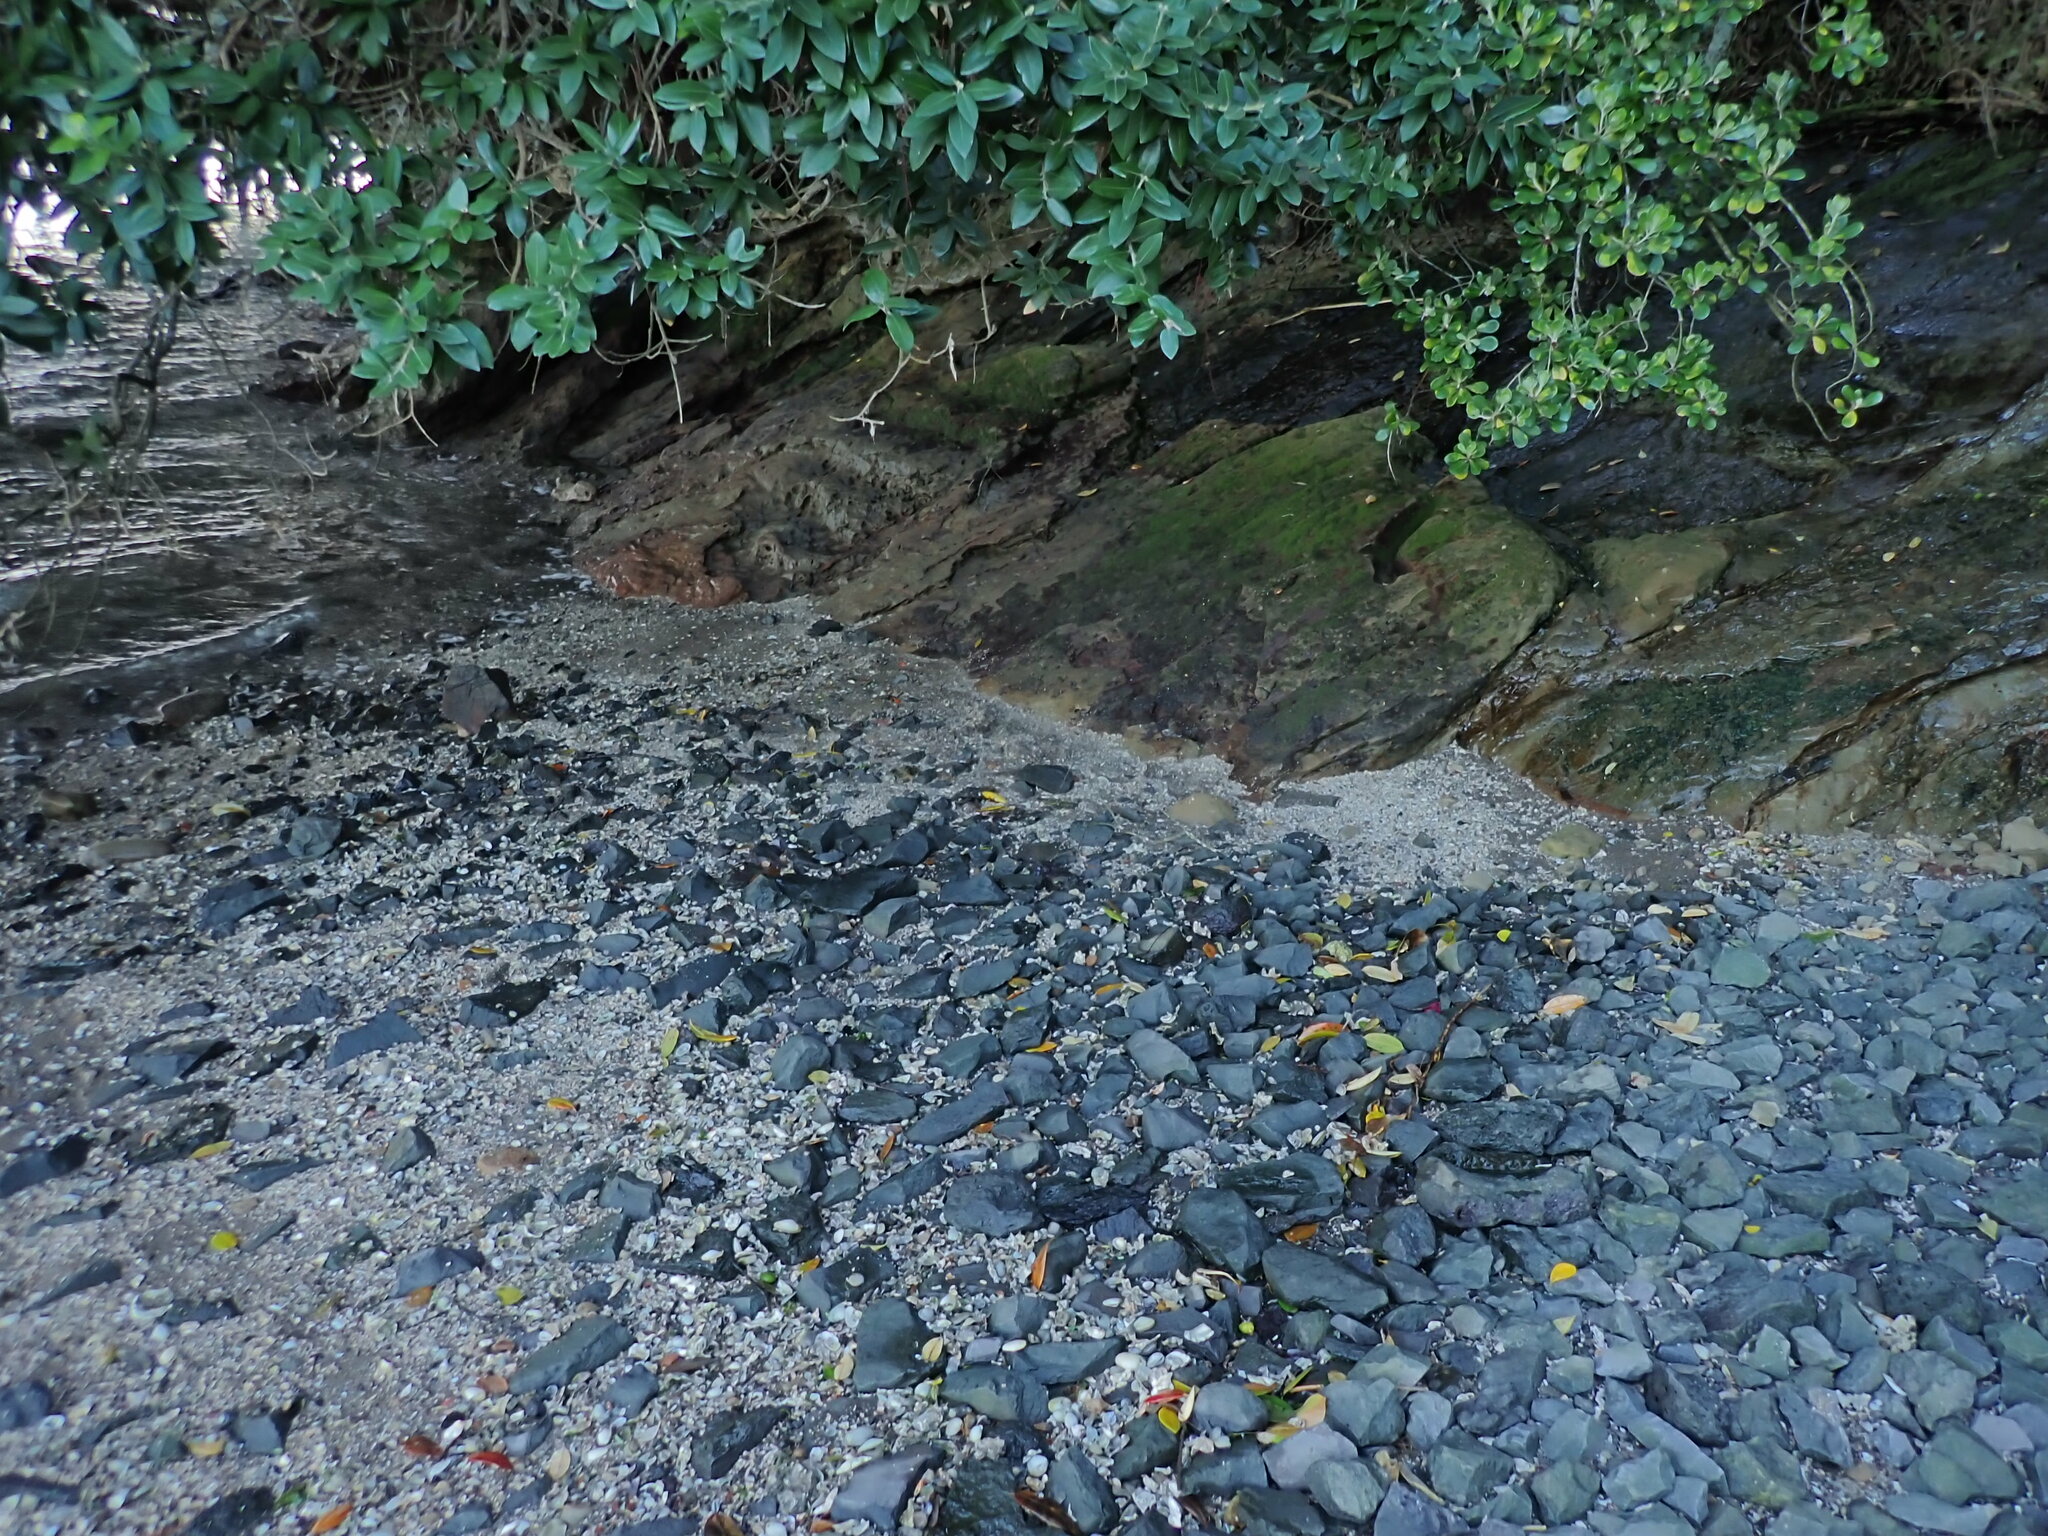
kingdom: Plantae
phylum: Rhodophyta
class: Florideophyceae
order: Ceramiales
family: Delesseriaceae
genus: Caloglossa
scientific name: Caloglossa vieillardii
